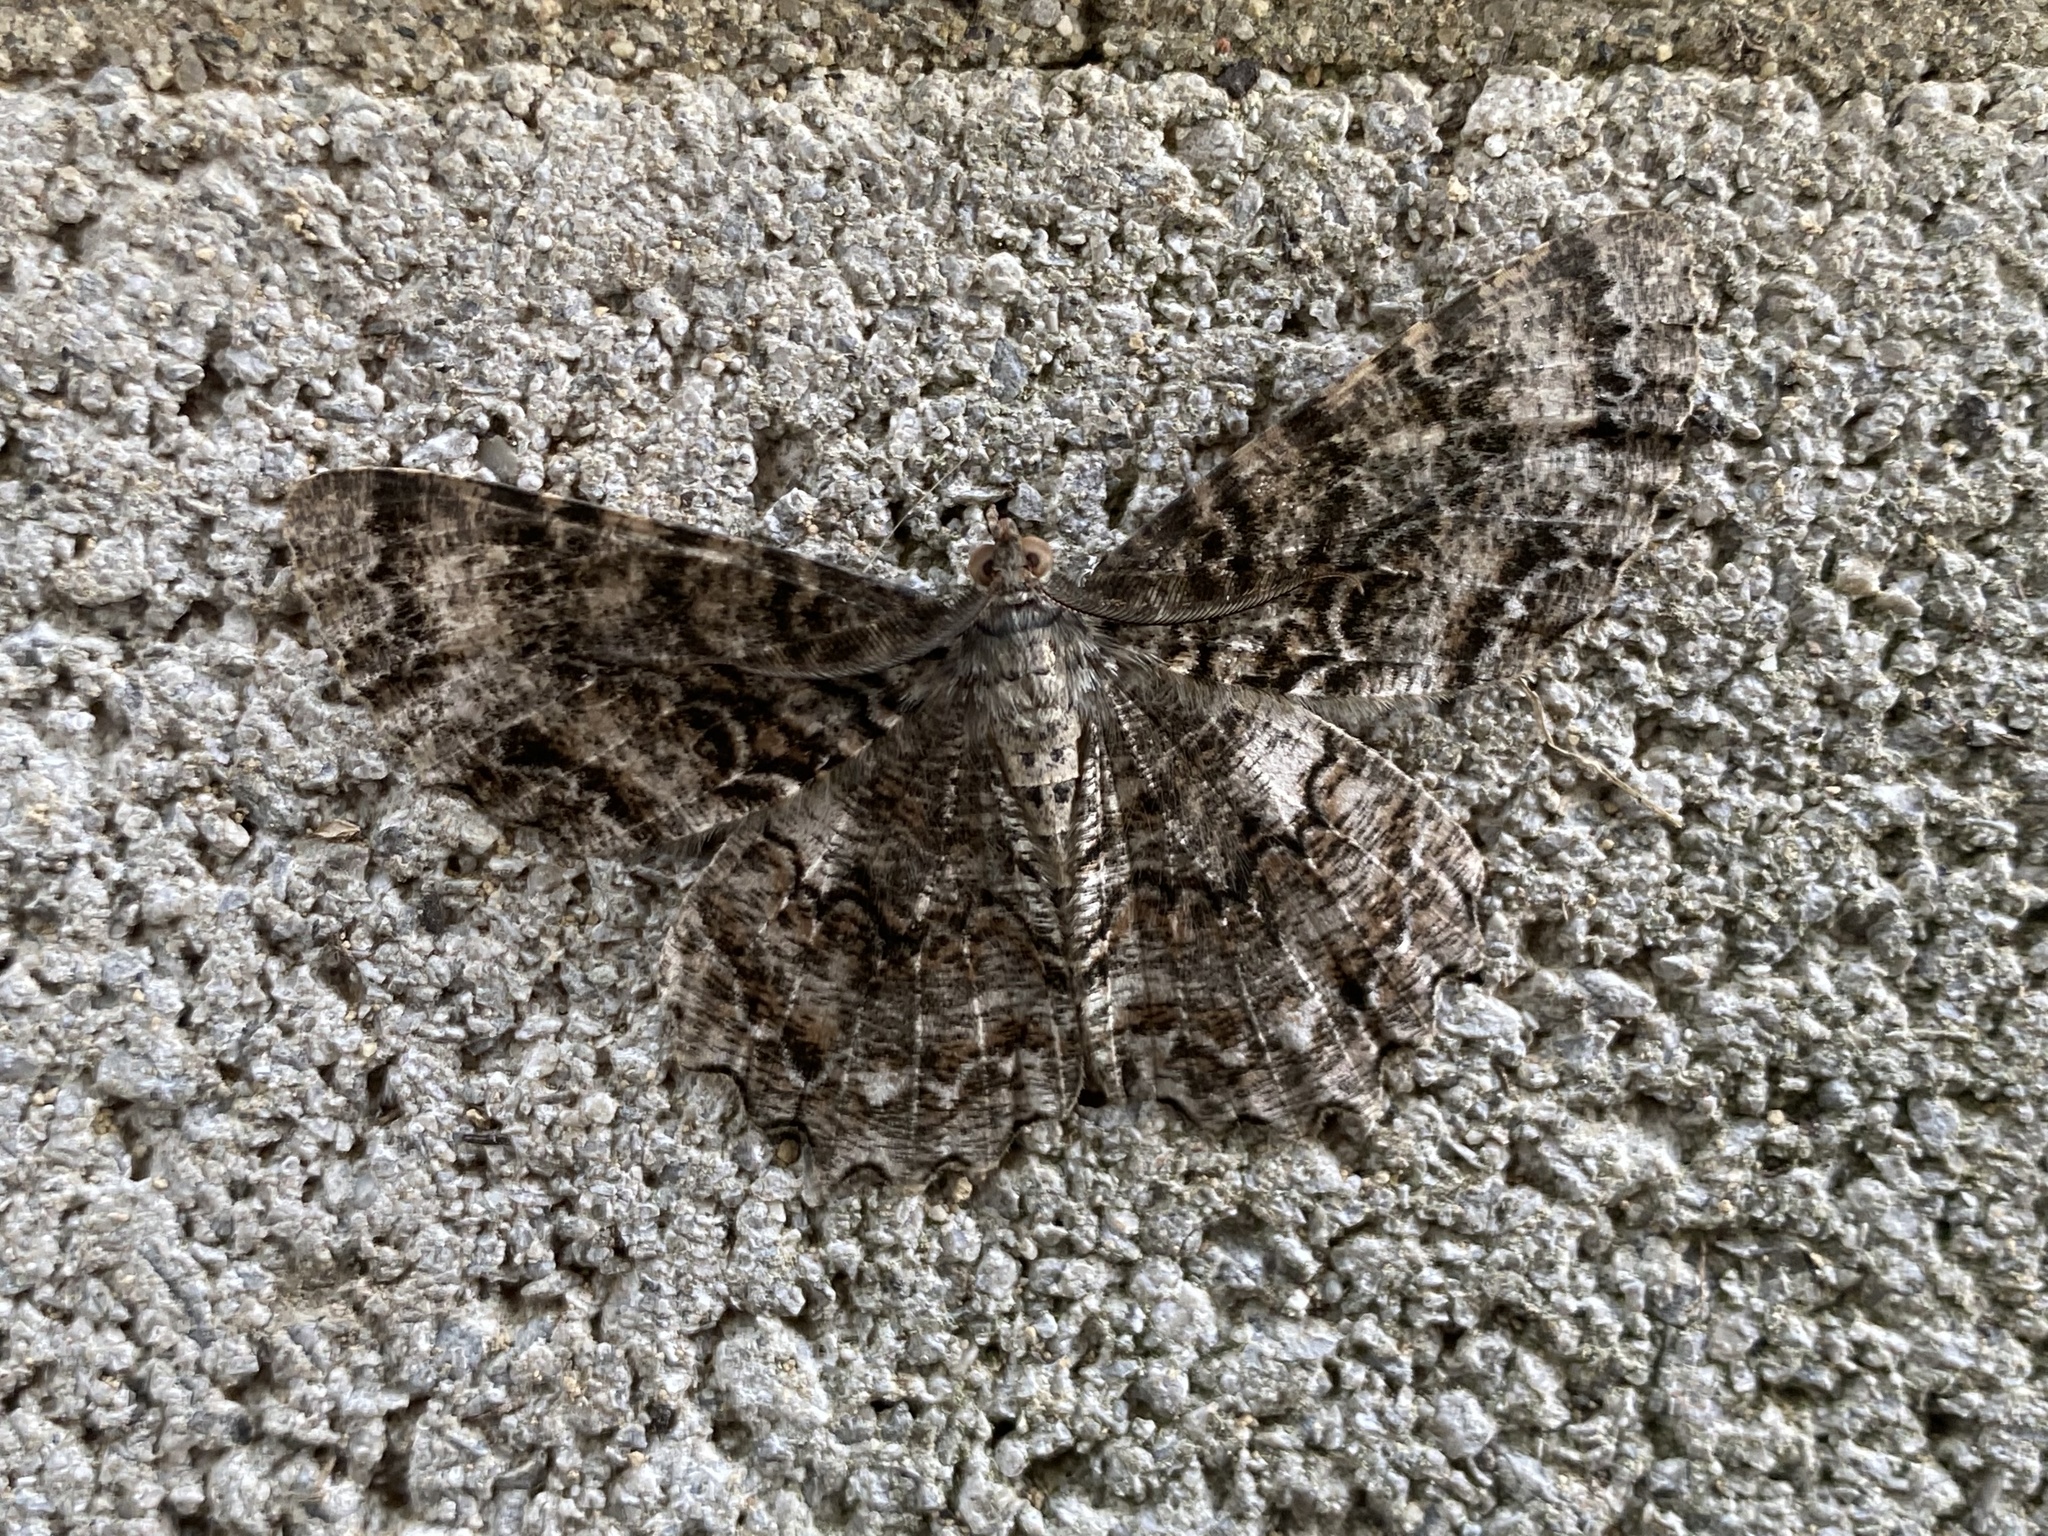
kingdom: Animalia
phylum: Arthropoda
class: Insecta
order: Lepidoptera
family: Geometridae
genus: Epimecis
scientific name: Epimecis hortaria
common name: Tulip-tree beauty
